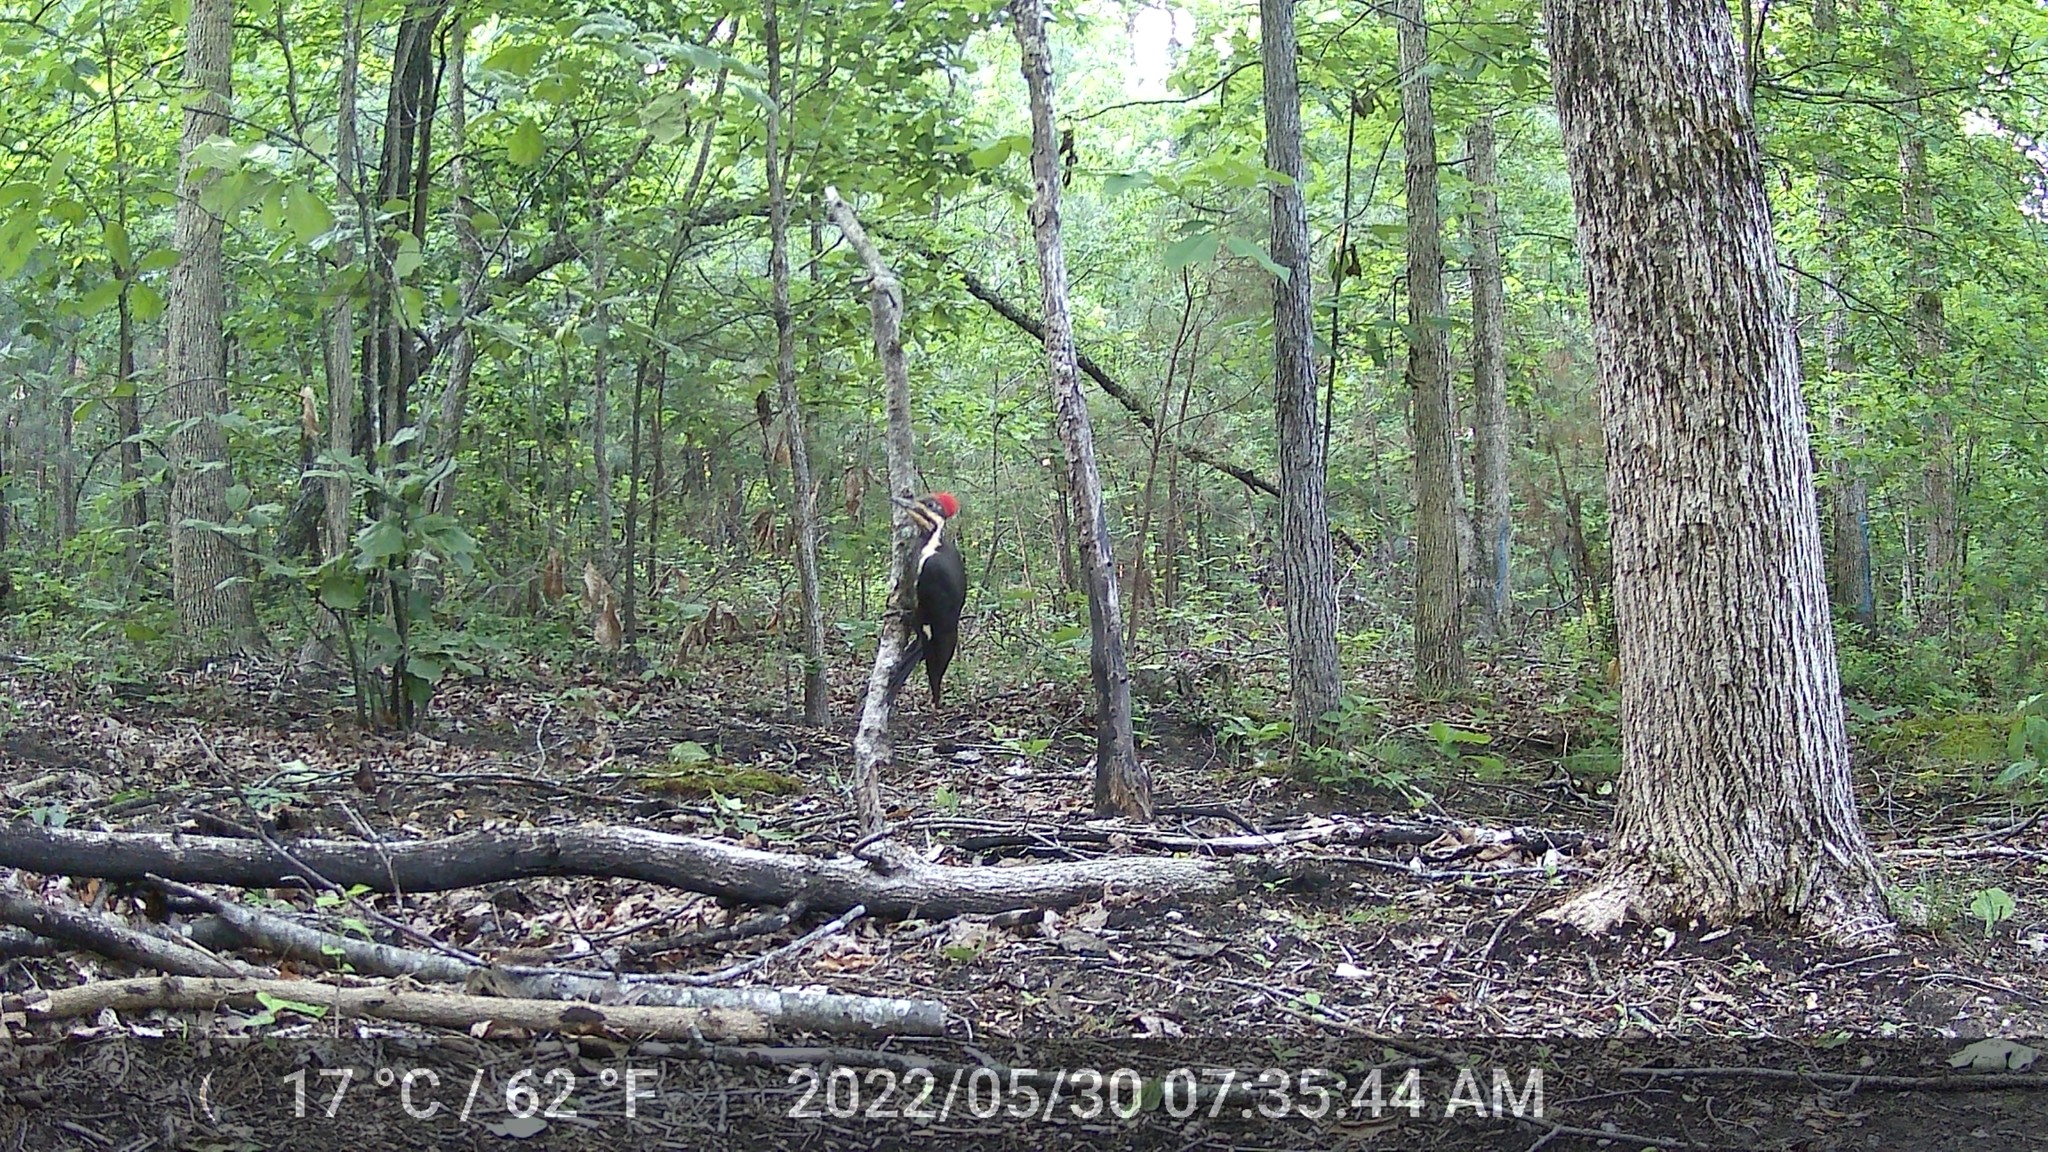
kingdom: Animalia
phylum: Chordata
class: Aves
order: Piciformes
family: Picidae
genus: Dryocopus
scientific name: Dryocopus pileatus
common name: Pileated woodpecker
